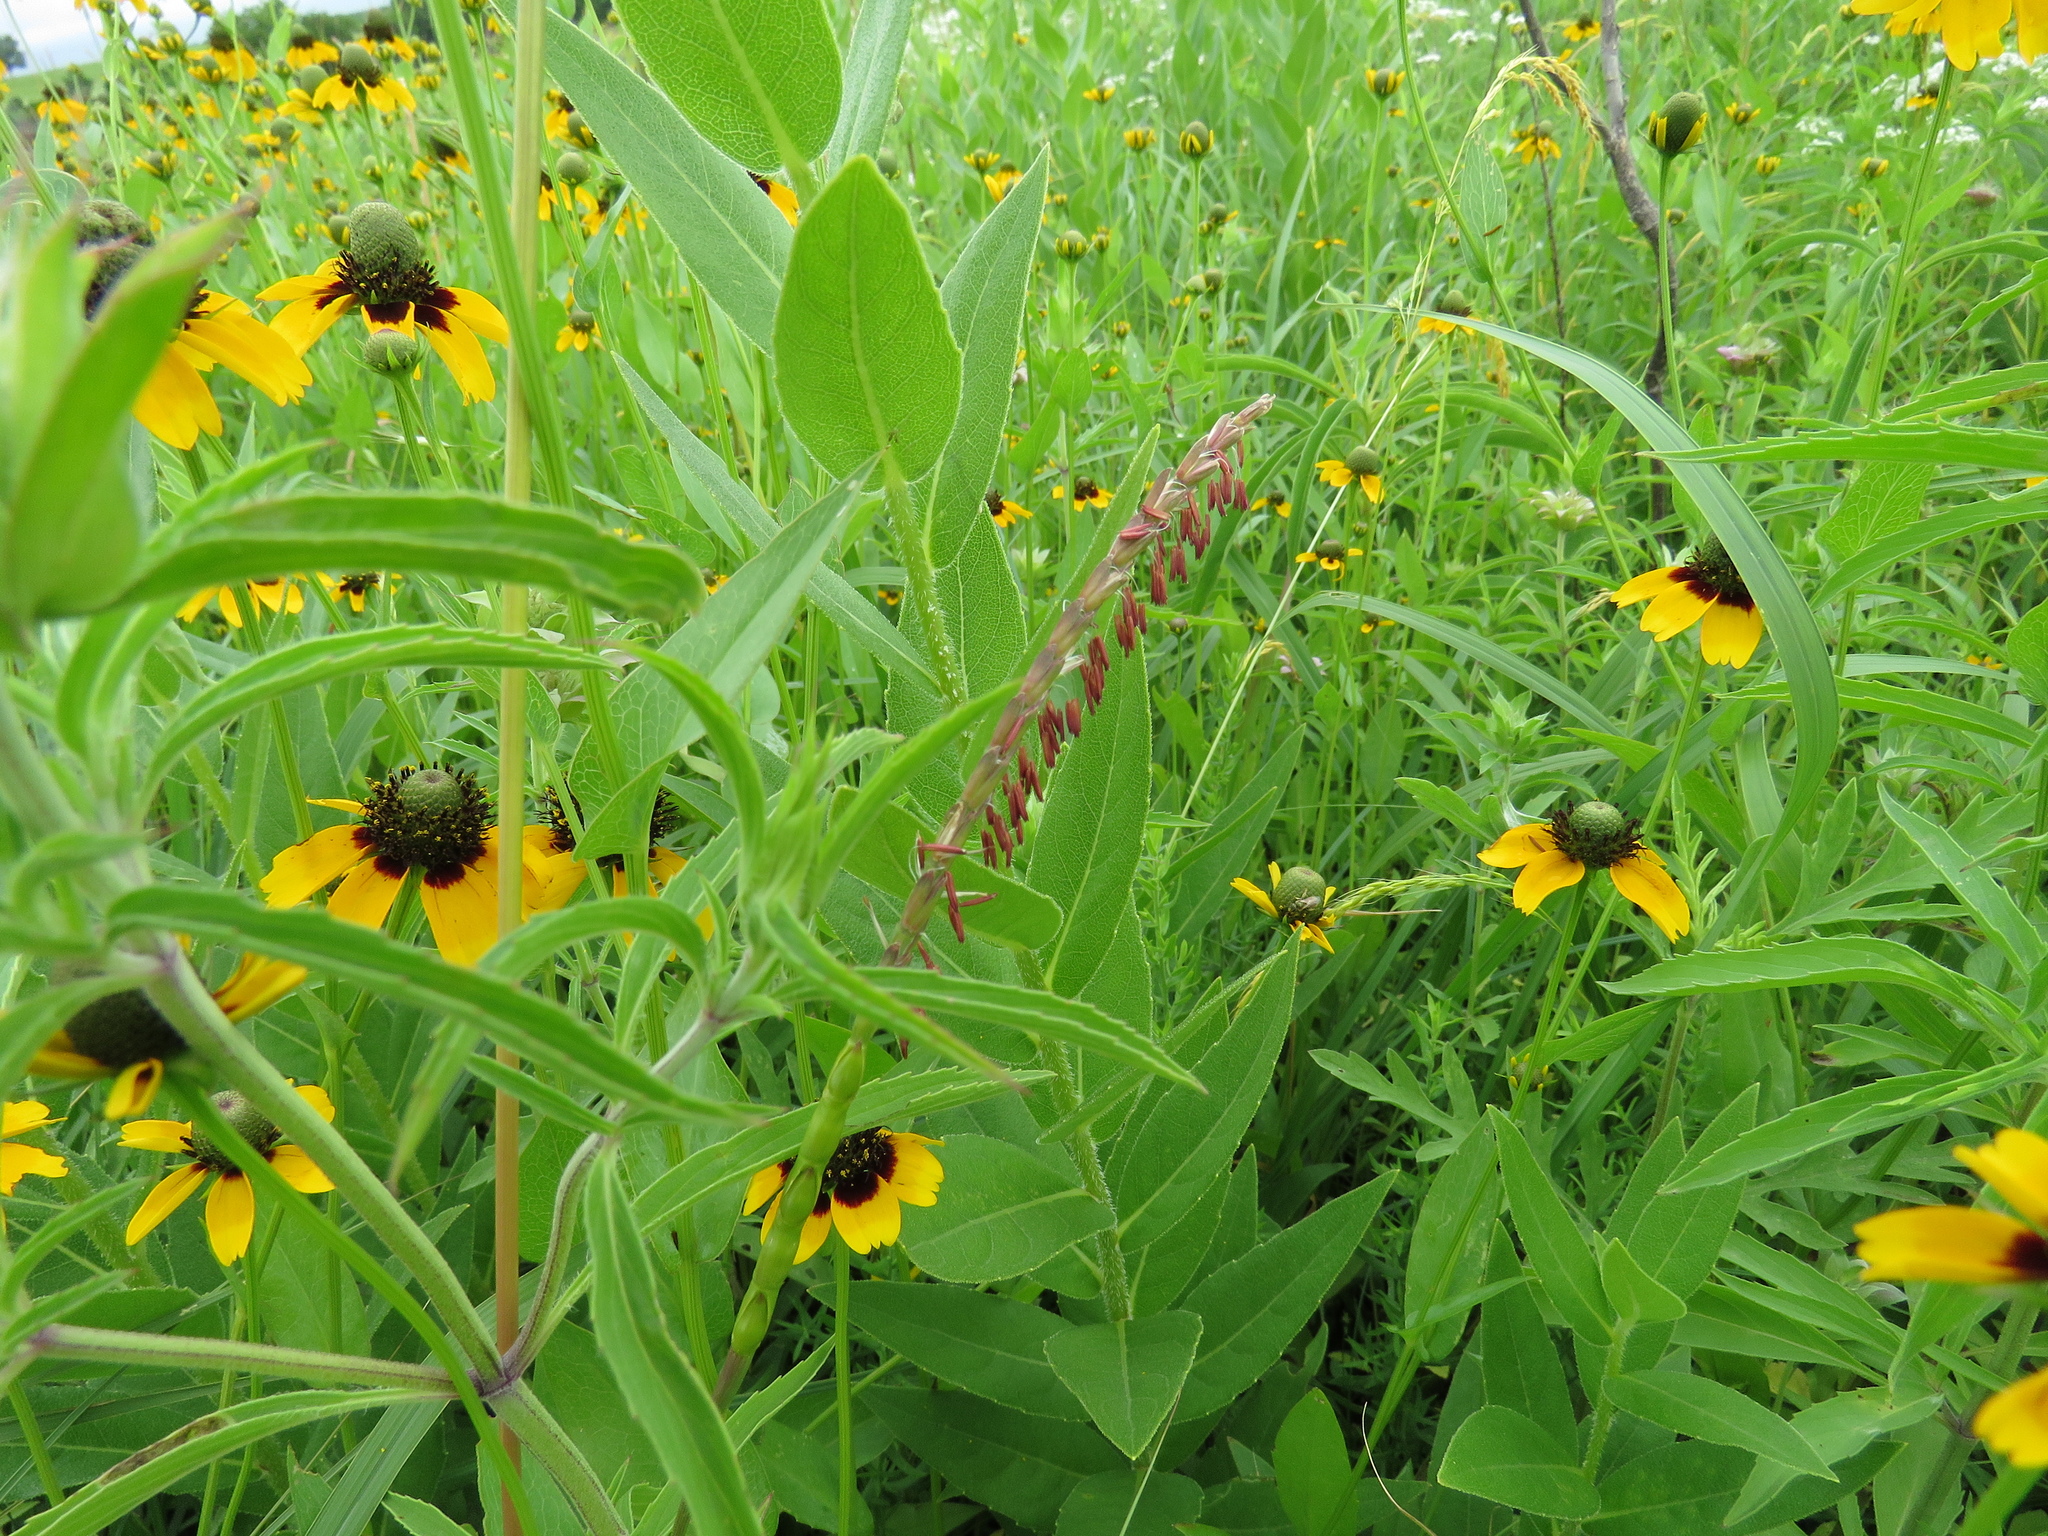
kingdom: Plantae
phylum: Tracheophyta
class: Liliopsida
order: Poales
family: Poaceae
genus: Tripsacum
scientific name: Tripsacum dactyloides
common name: Buffalo-grass
